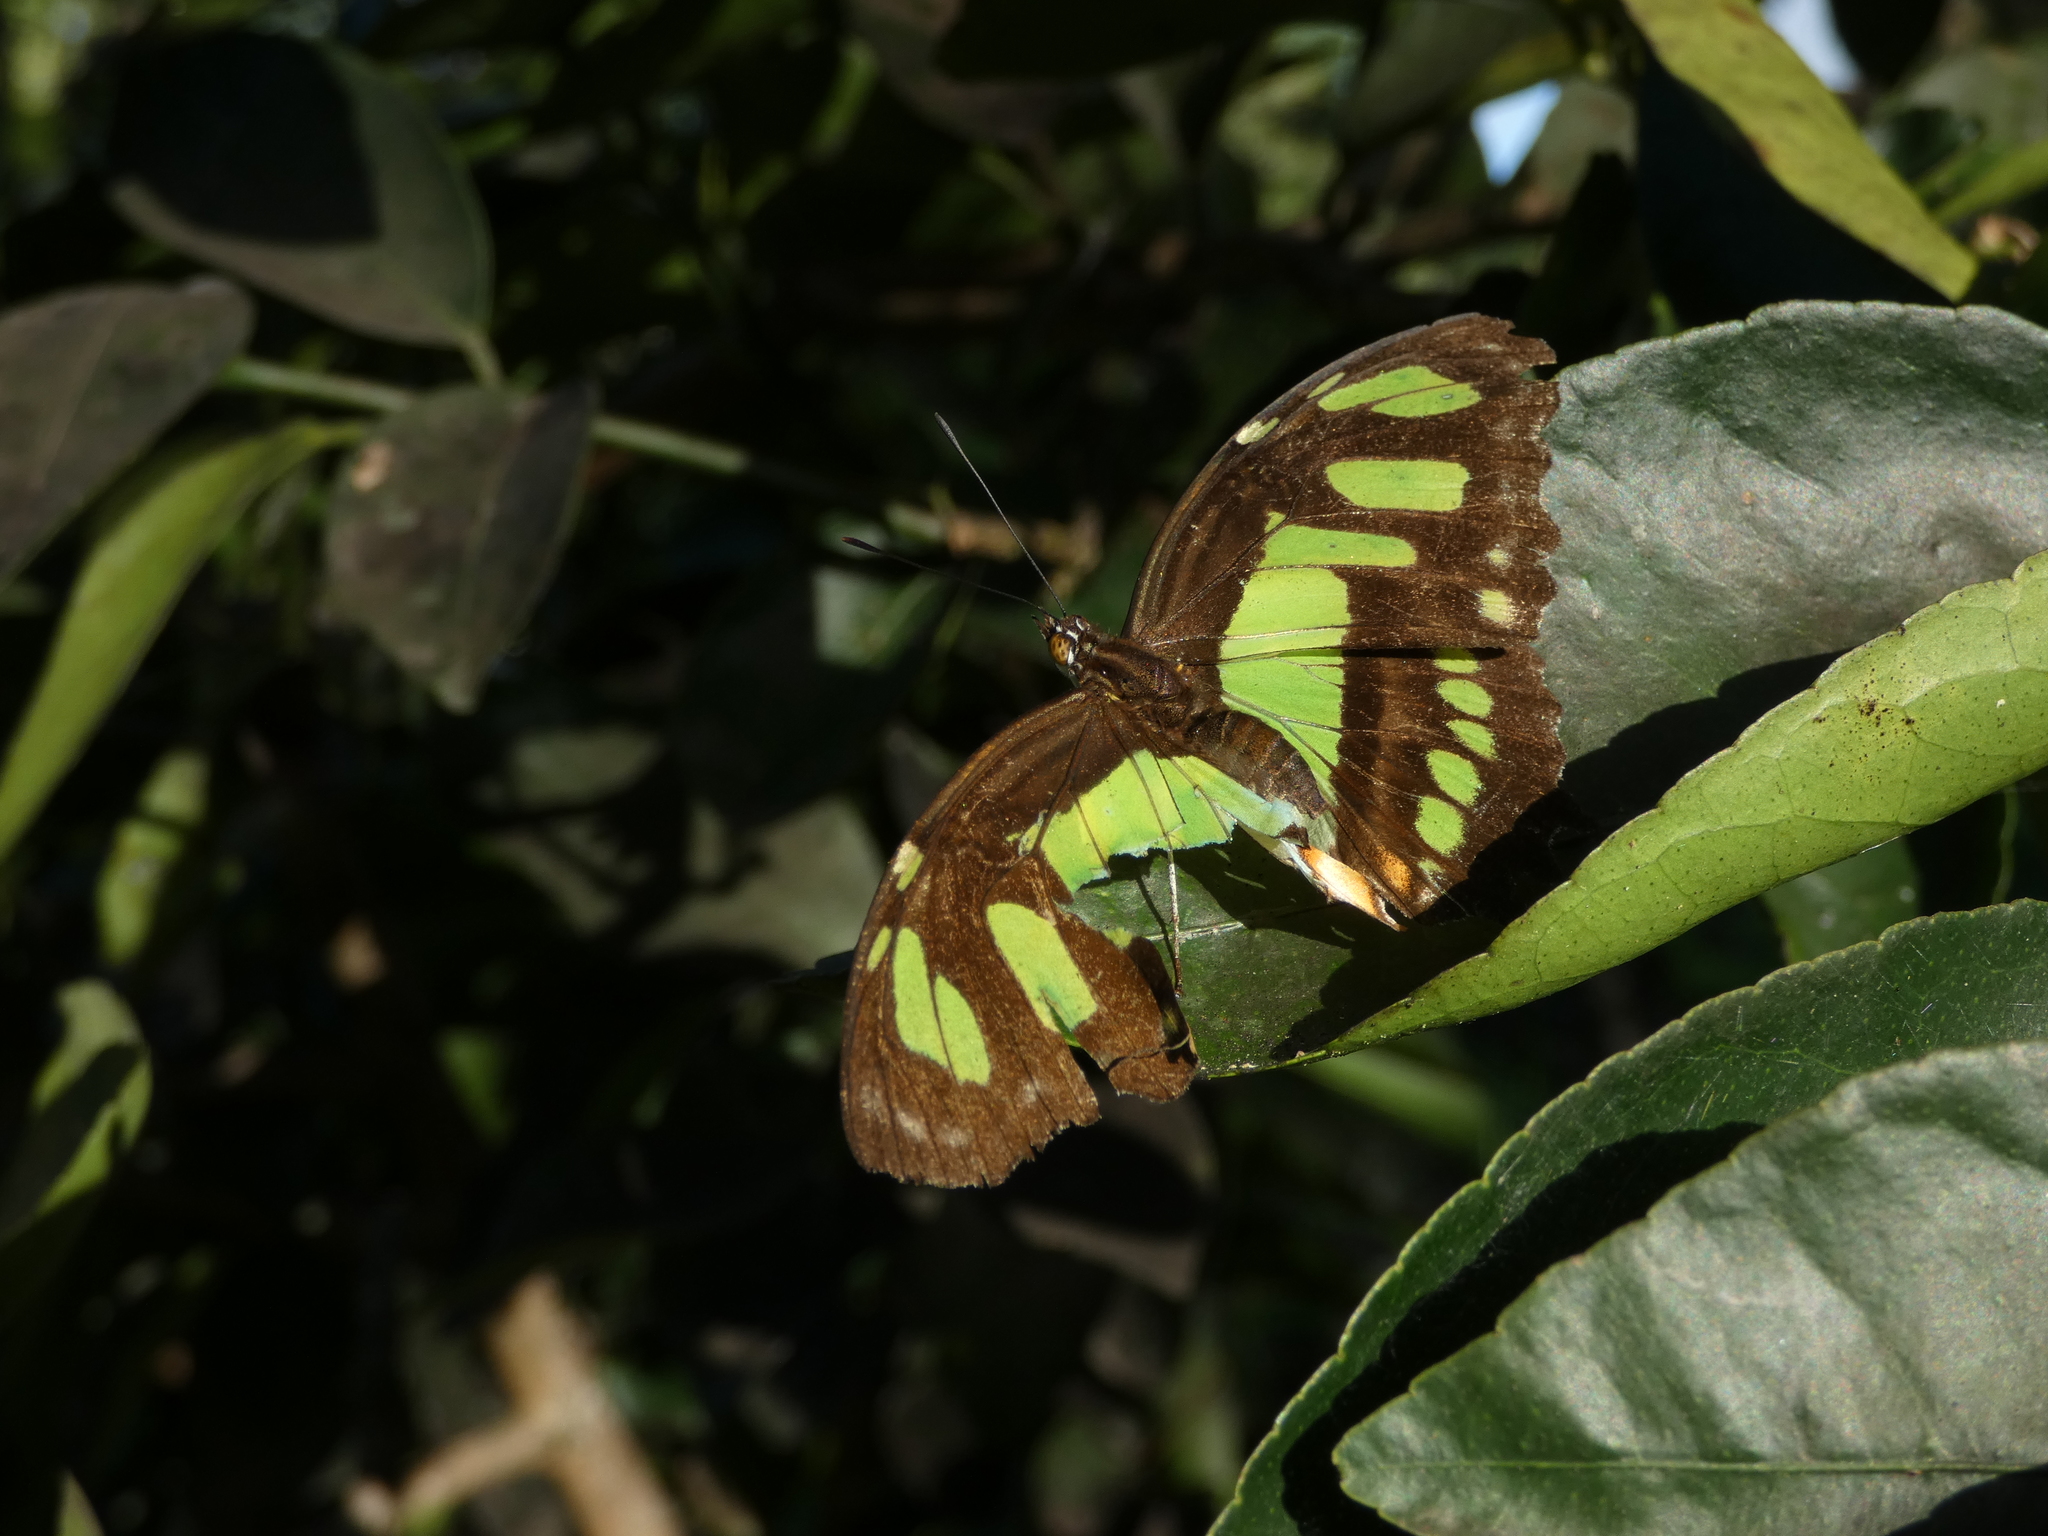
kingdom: Animalia
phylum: Arthropoda
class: Insecta
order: Lepidoptera
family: Nymphalidae
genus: Siproeta
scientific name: Siproeta stelenes
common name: Malachite
